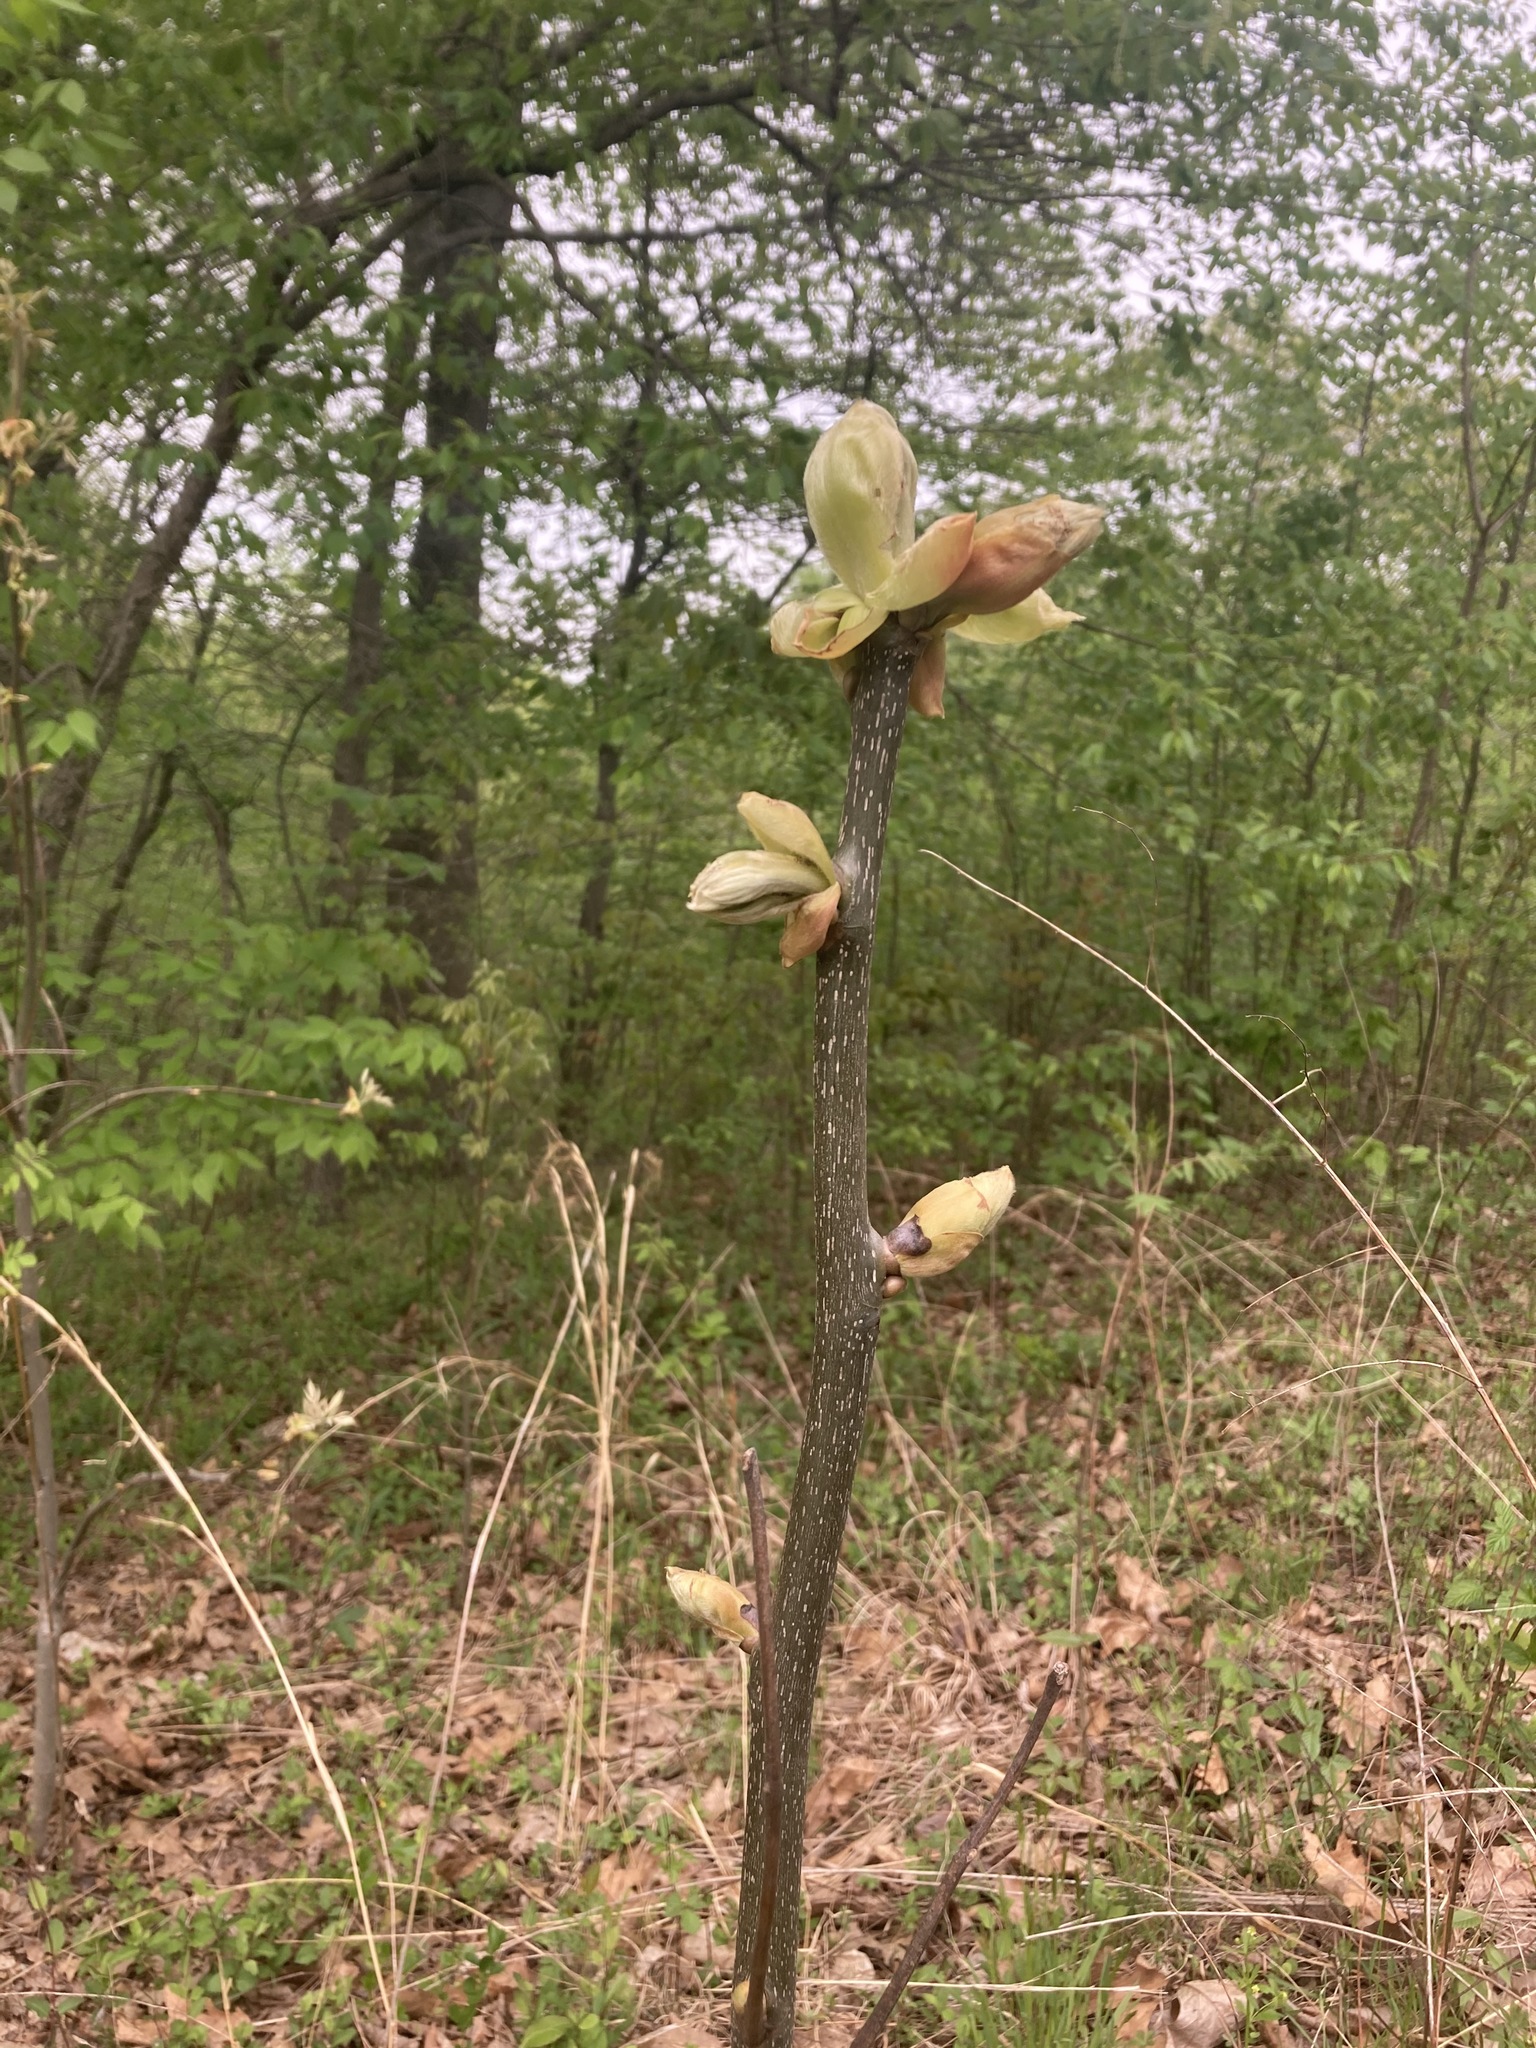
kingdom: Plantae
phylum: Tracheophyta
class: Magnoliopsida
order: Lamiales
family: Paulowniaceae
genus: Paulownia
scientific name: Paulownia tomentosa
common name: Foxglove-tree
